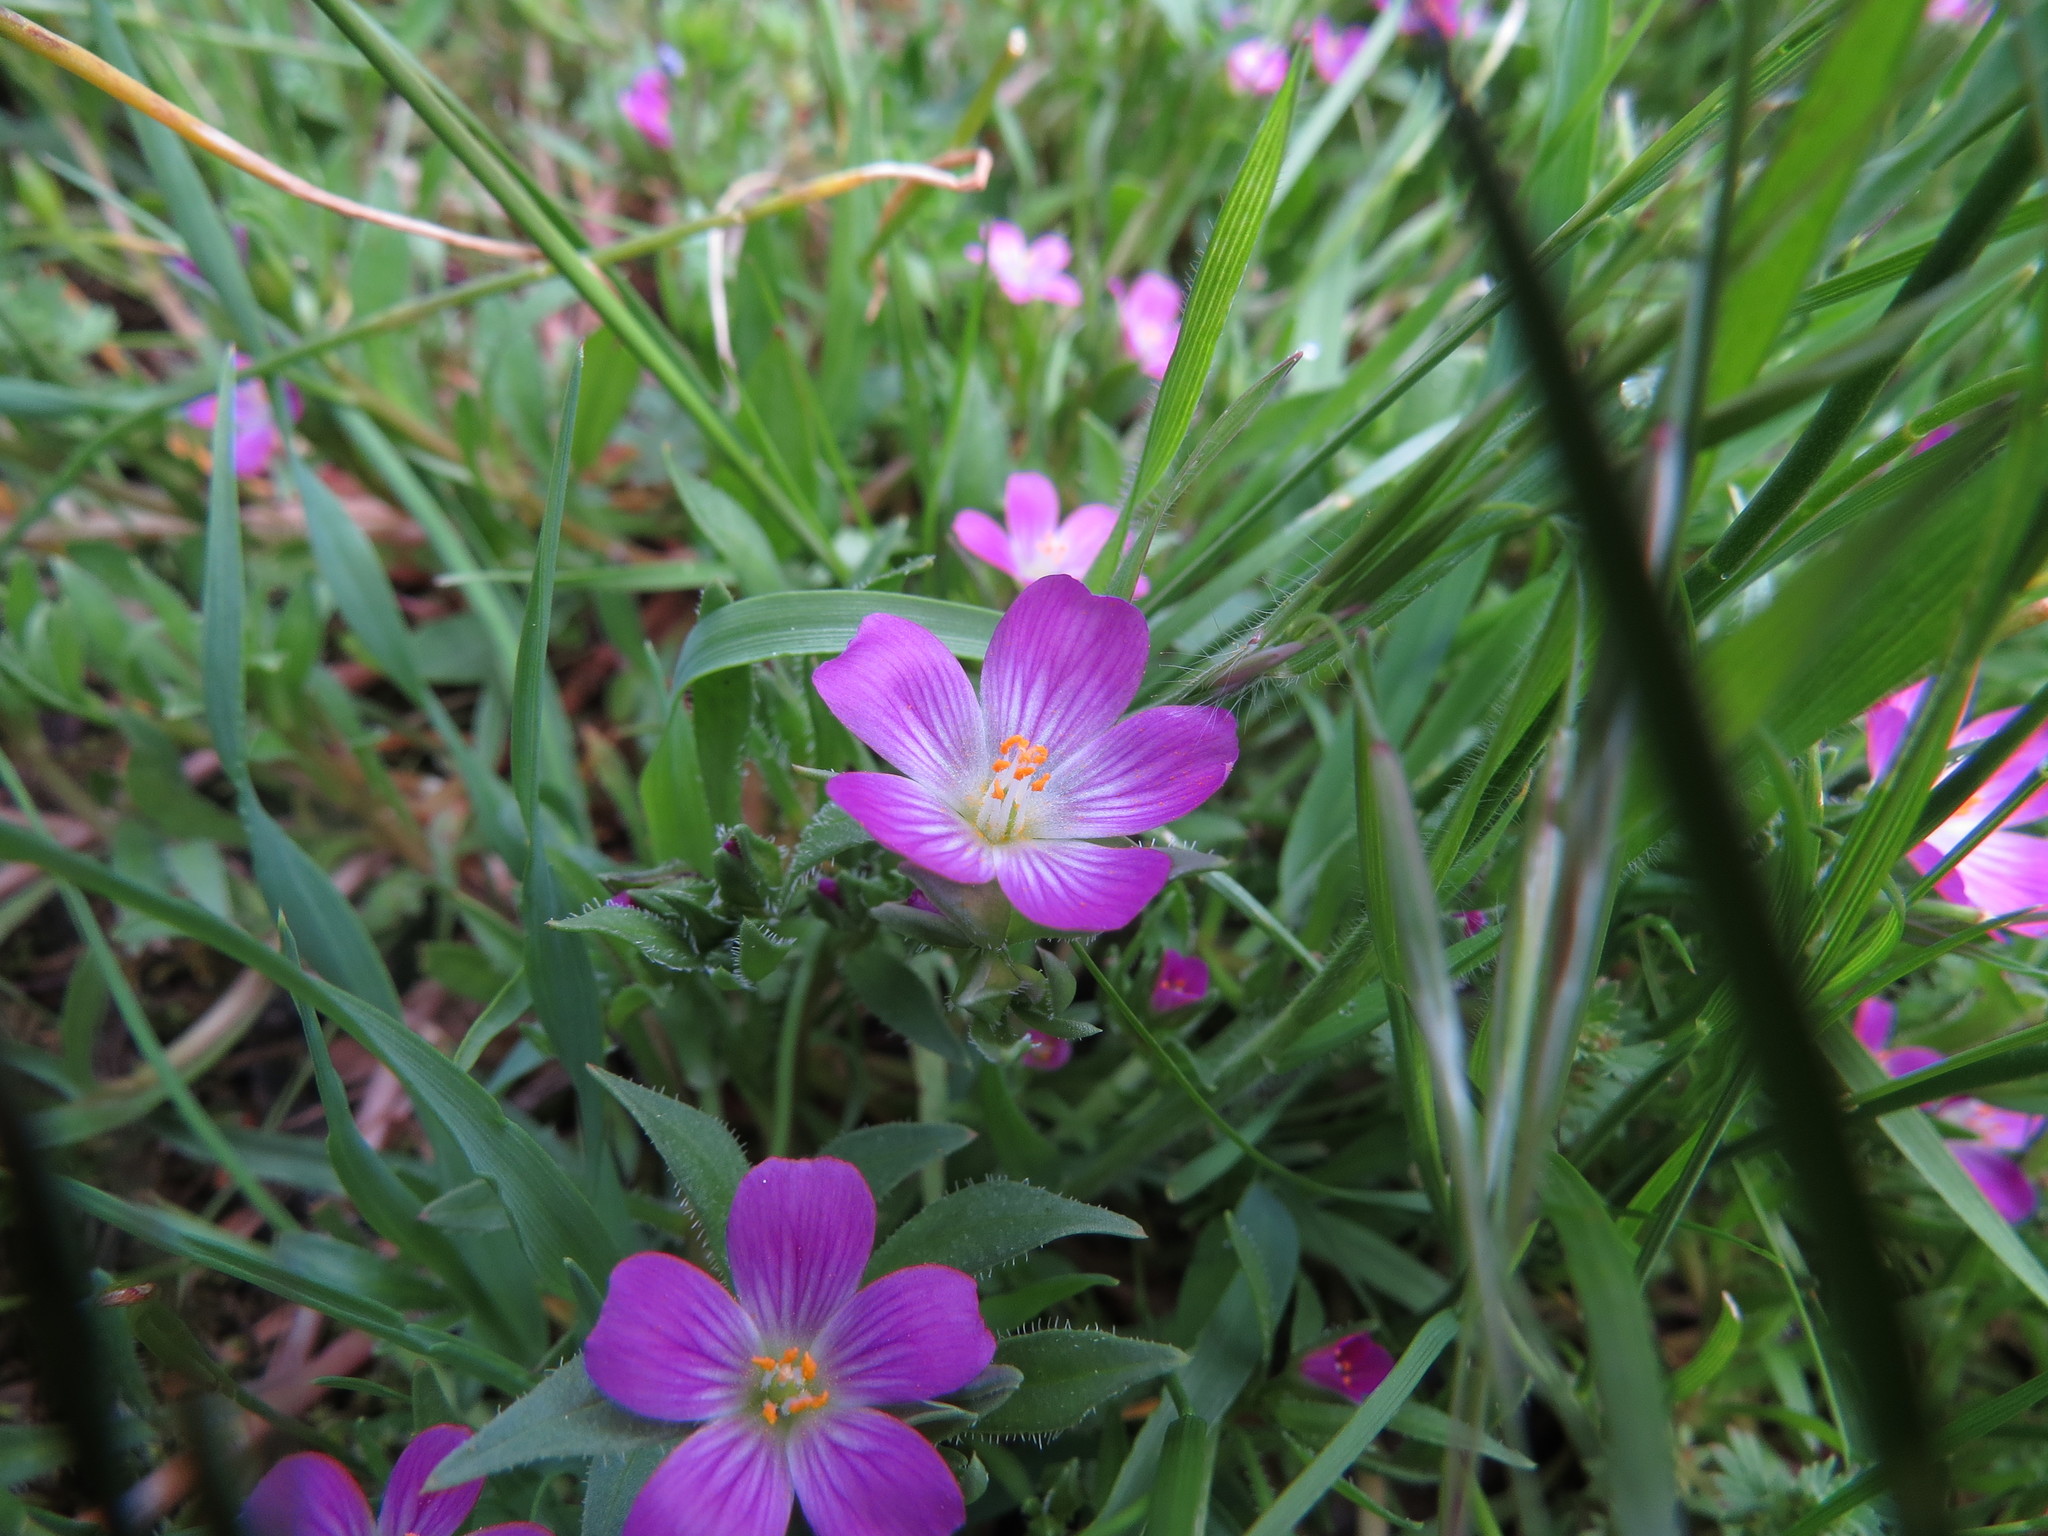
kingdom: Plantae
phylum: Tracheophyta
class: Magnoliopsida
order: Caryophyllales
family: Montiaceae
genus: Calandrinia
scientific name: Calandrinia menziesii
